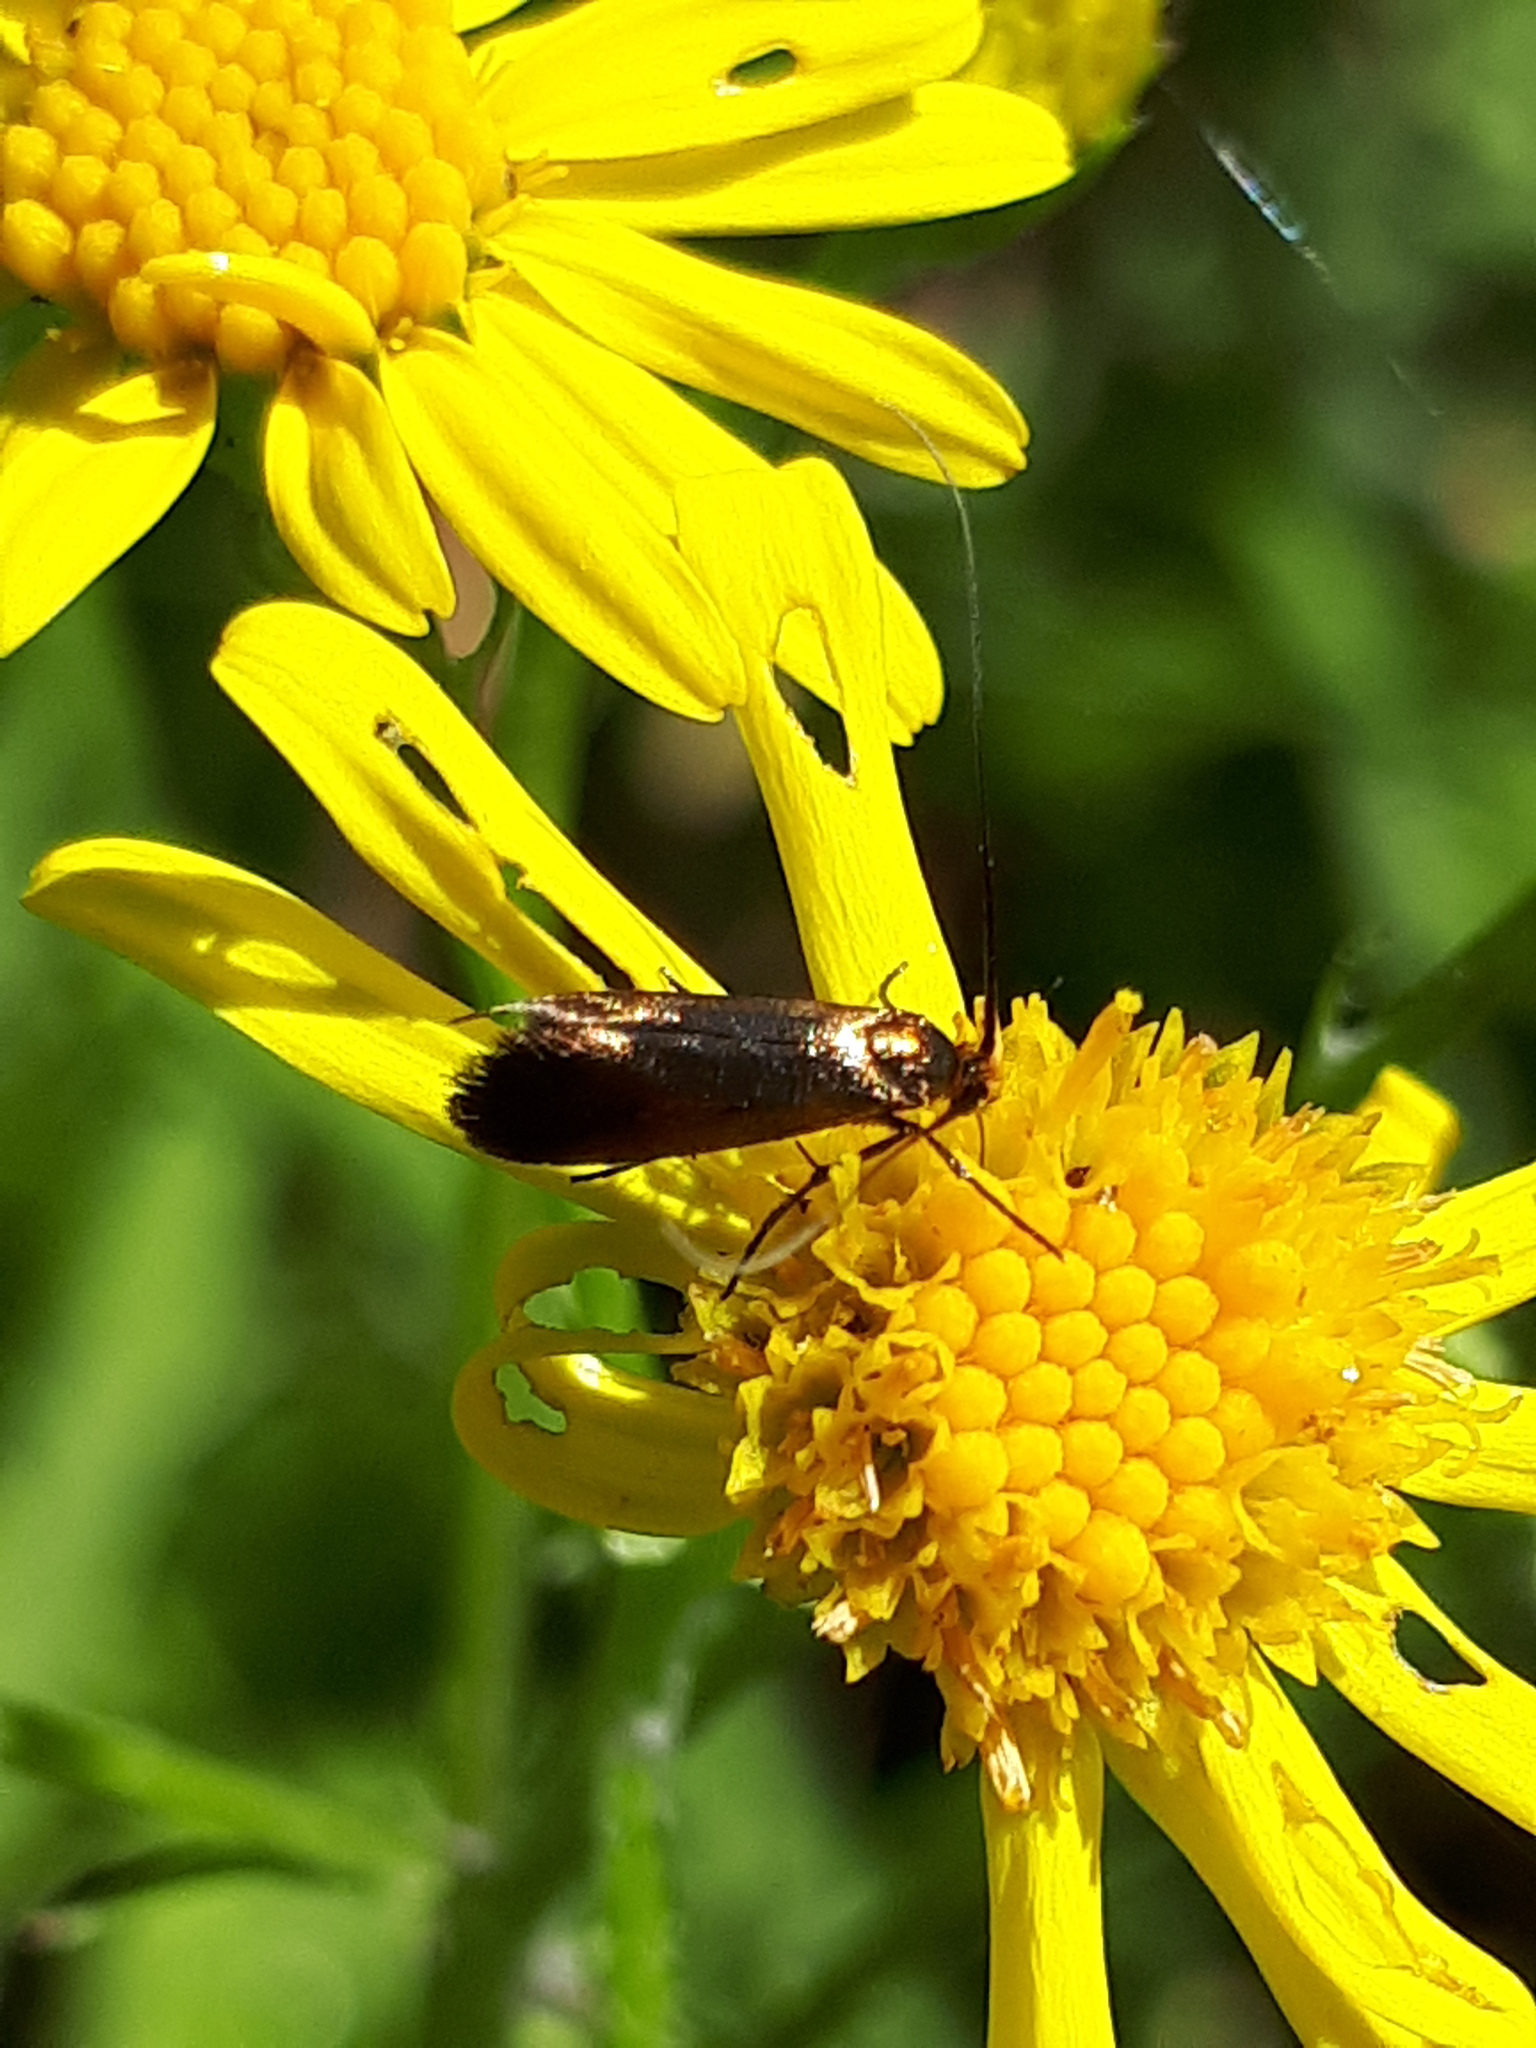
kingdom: Animalia
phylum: Arthropoda
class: Insecta
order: Lepidoptera
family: Adelidae
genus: Adela
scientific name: Adela violella
